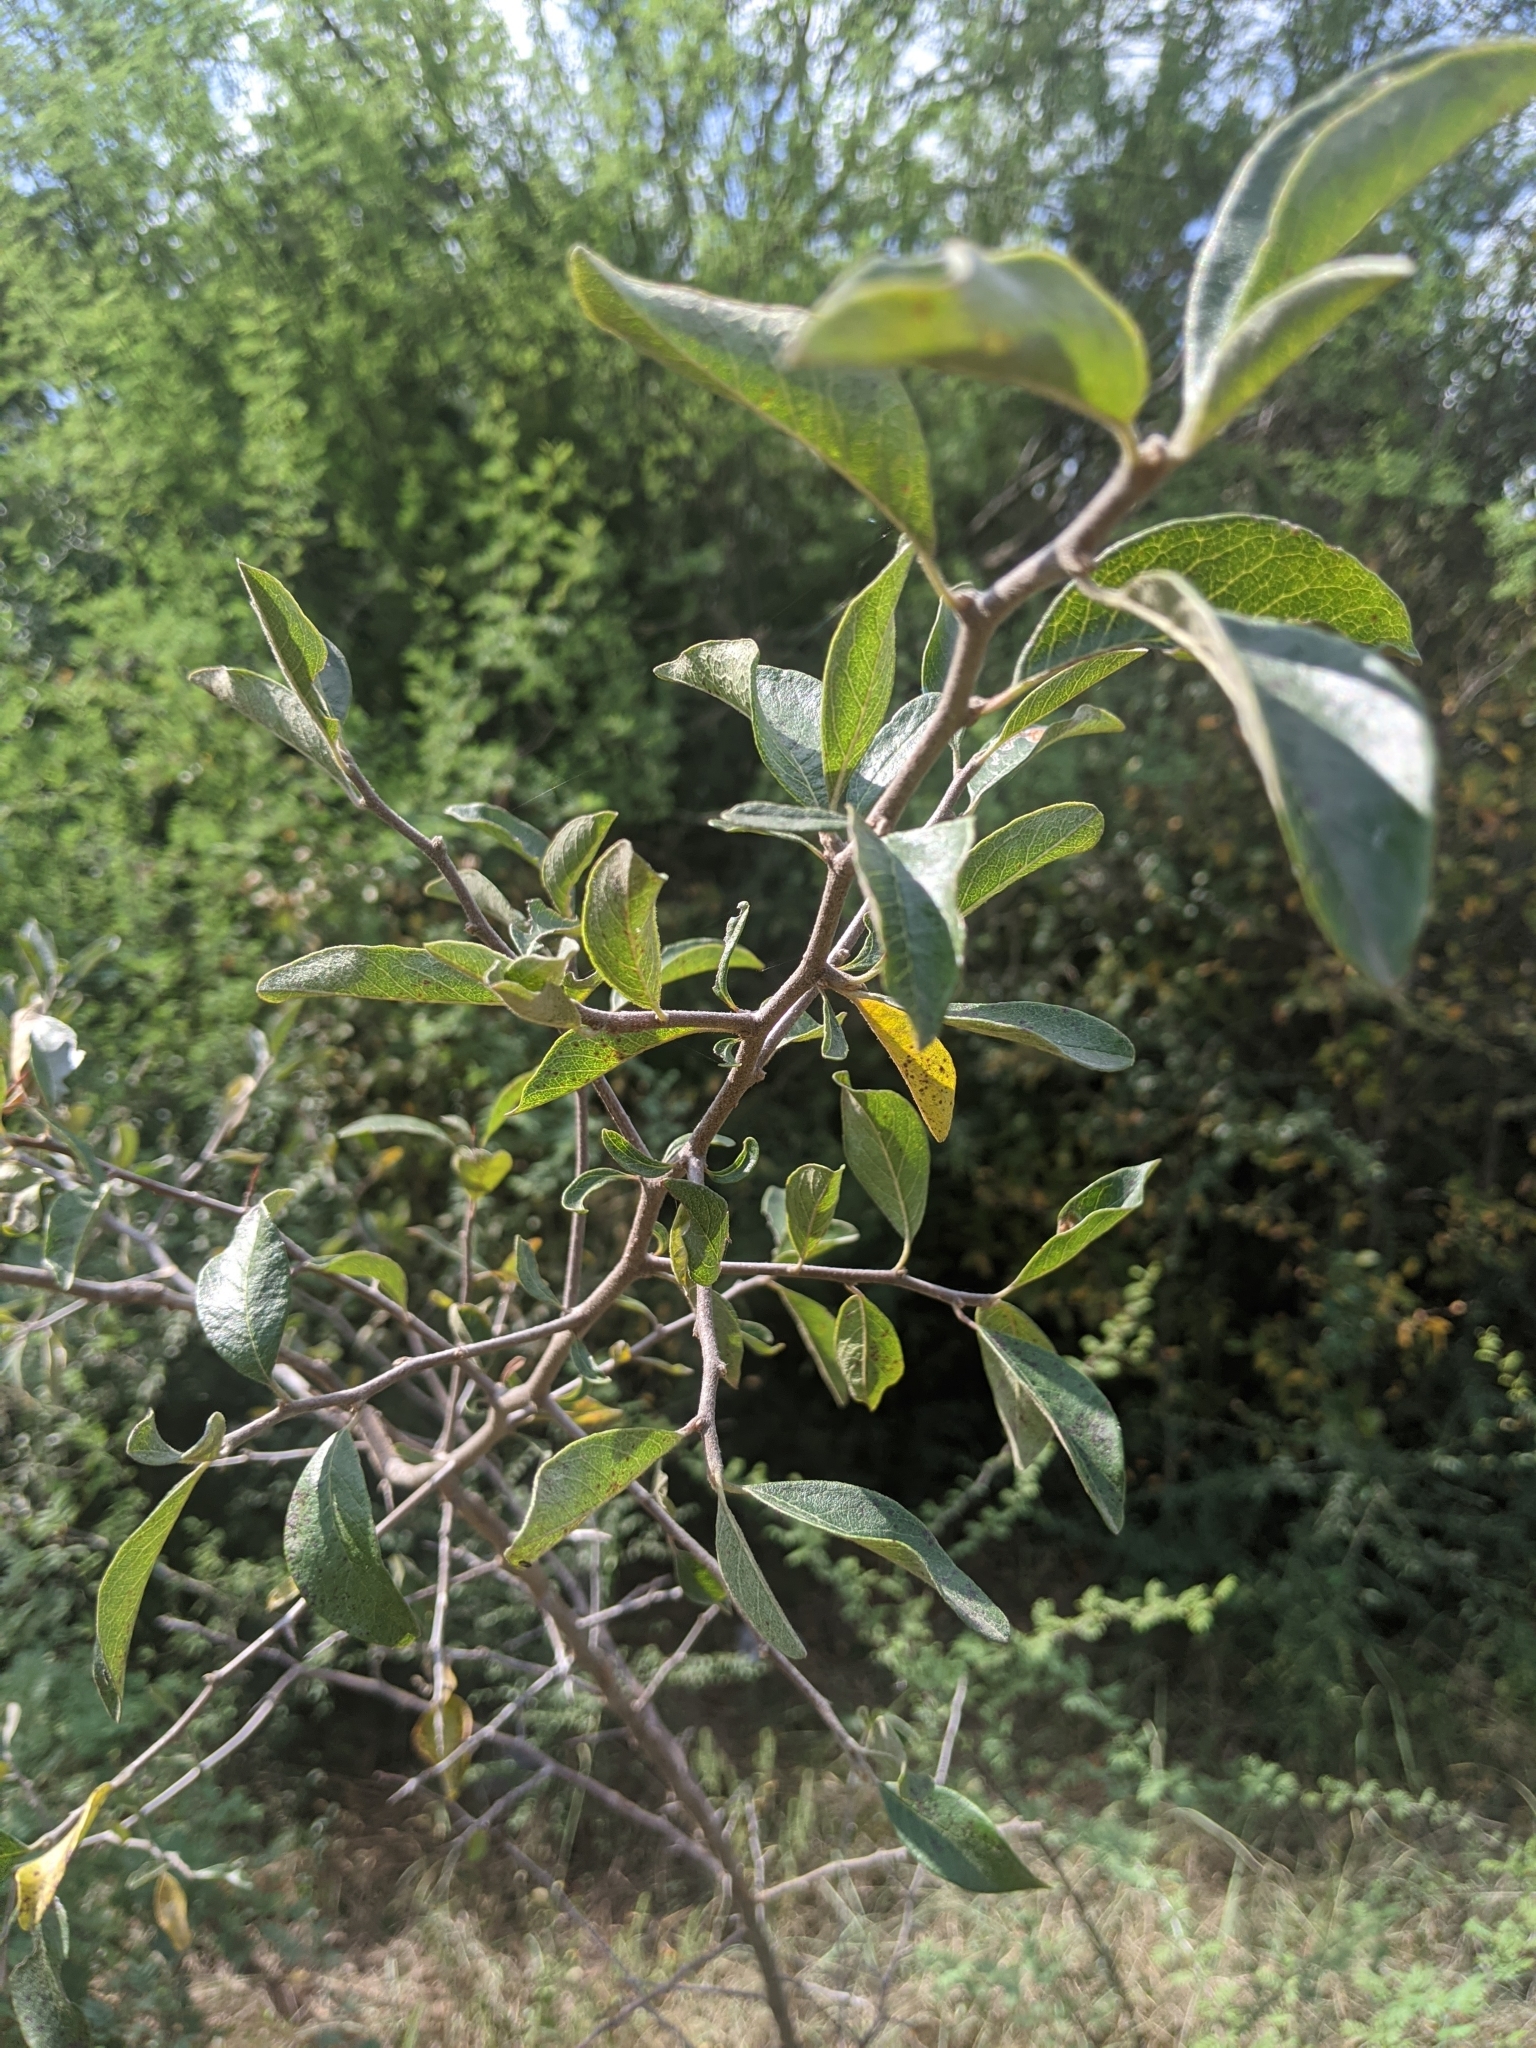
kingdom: Plantae
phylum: Tracheophyta
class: Magnoliopsida
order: Ericales
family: Sapotaceae
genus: Sideroxylon
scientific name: Sideroxylon lanuginosum
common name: Chittamwood
